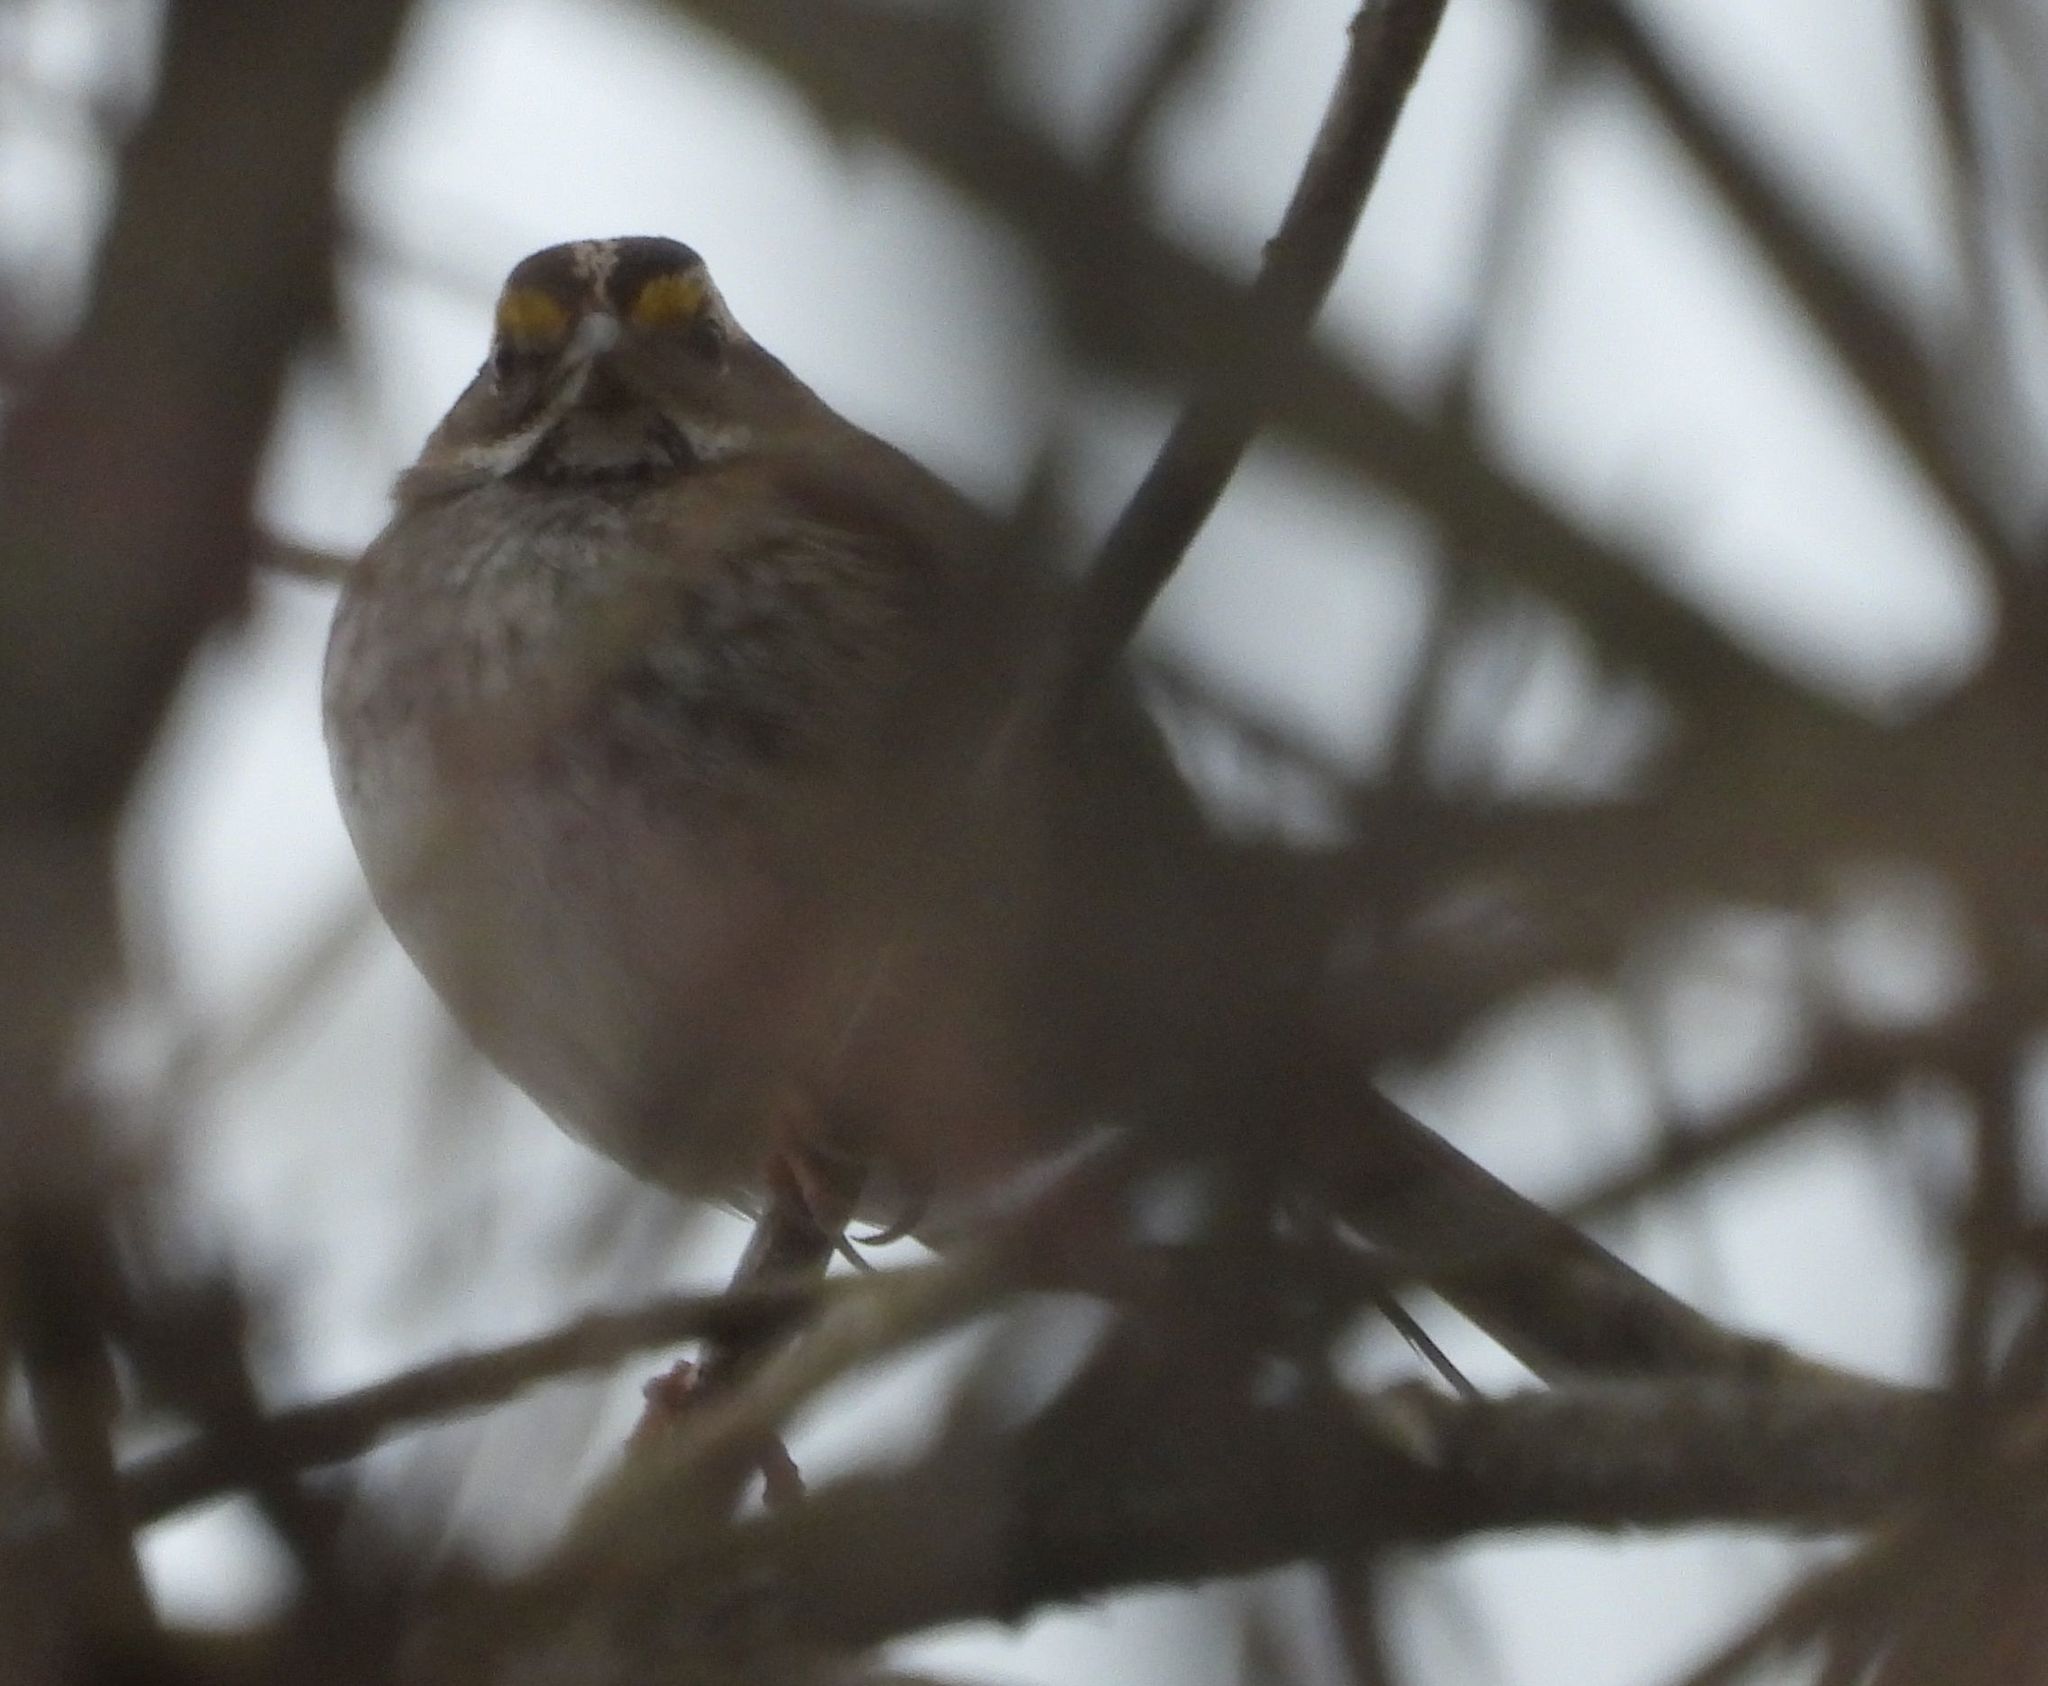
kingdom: Animalia
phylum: Chordata
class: Aves
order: Passeriformes
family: Passerellidae
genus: Zonotrichia
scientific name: Zonotrichia albicollis
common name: White-throated sparrow
